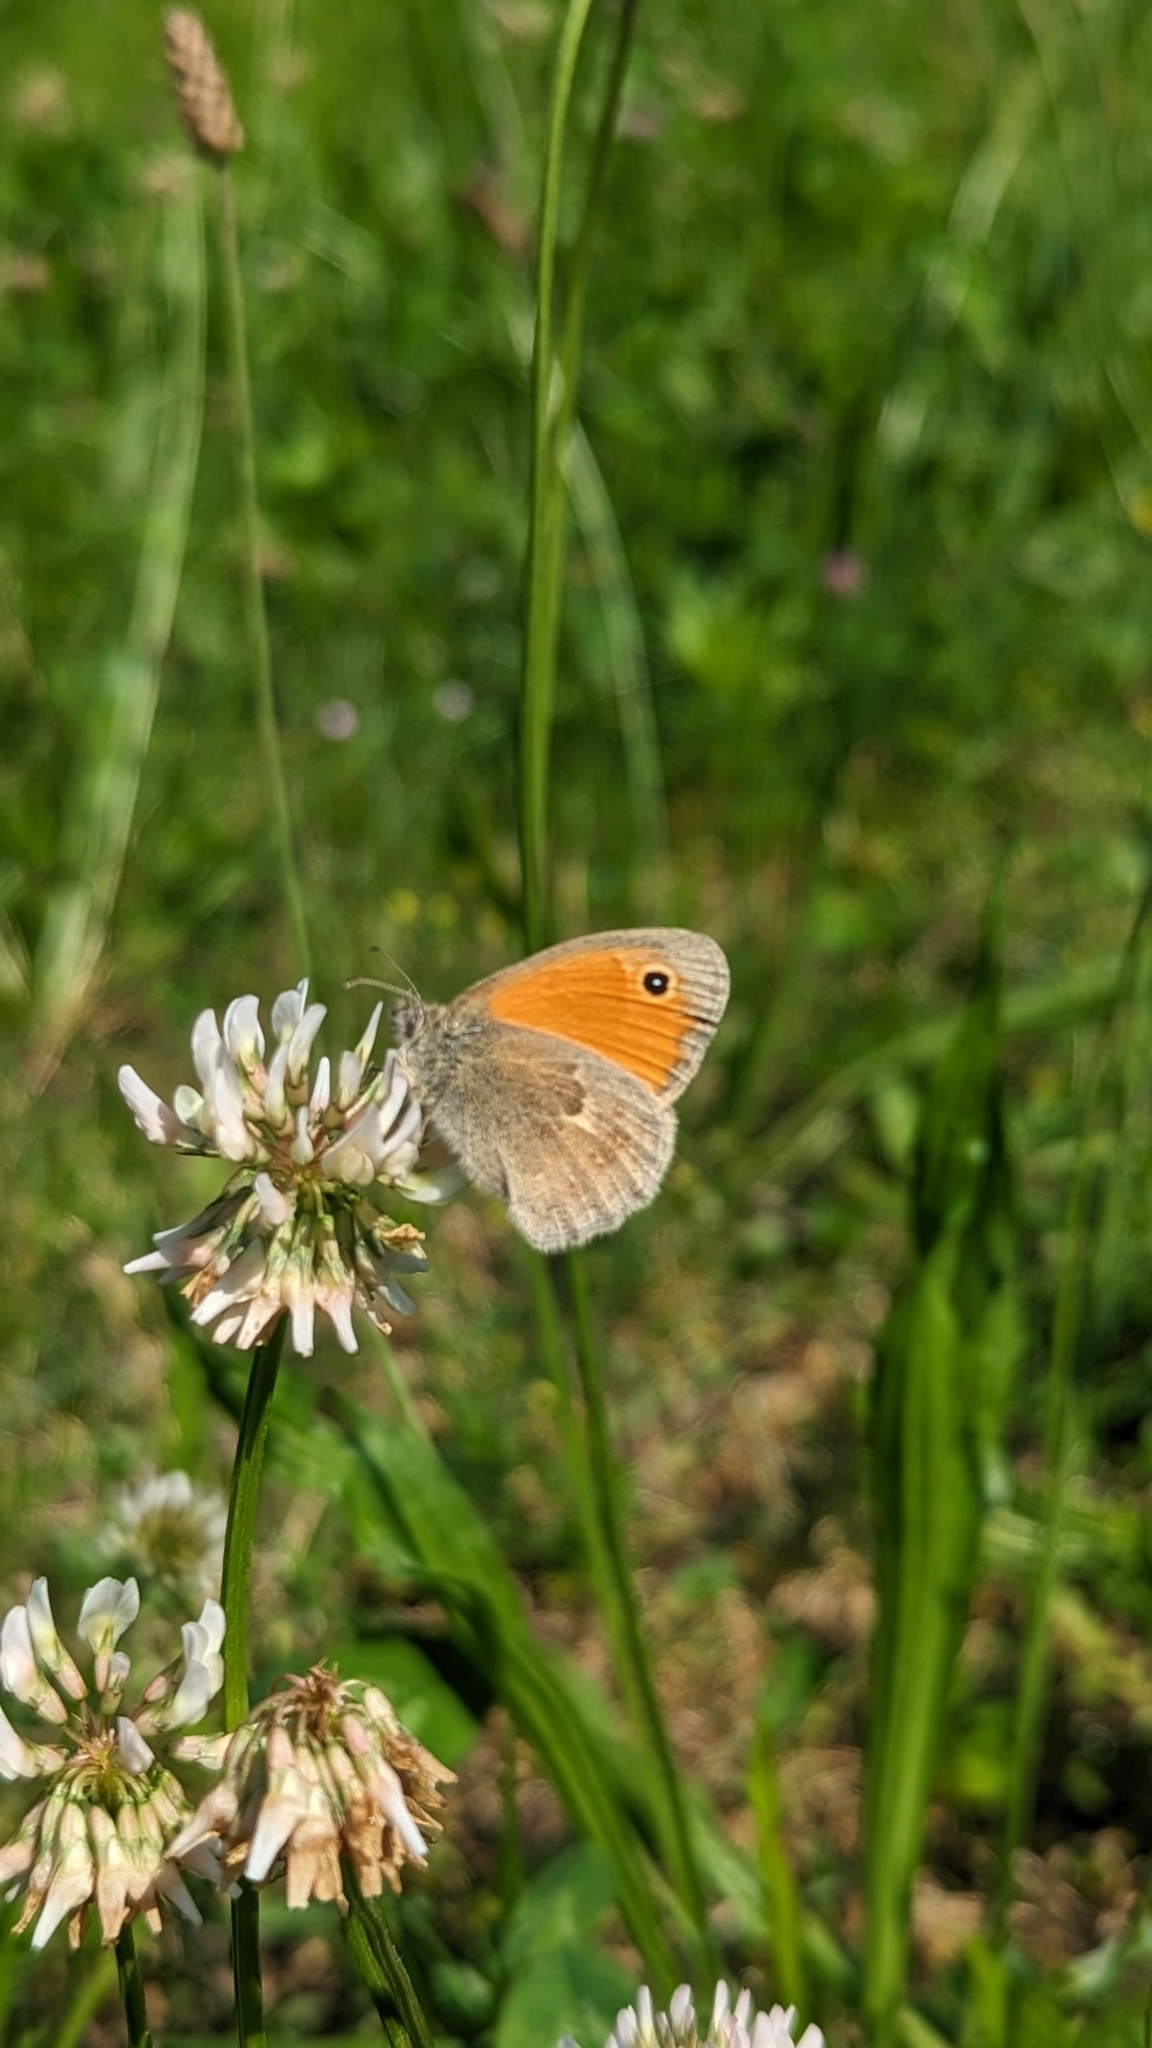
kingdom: Animalia
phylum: Arthropoda
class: Insecta
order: Lepidoptera
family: Nymphalidae
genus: Coenonympha
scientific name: Coenonympha pamphilus
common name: Small heath
